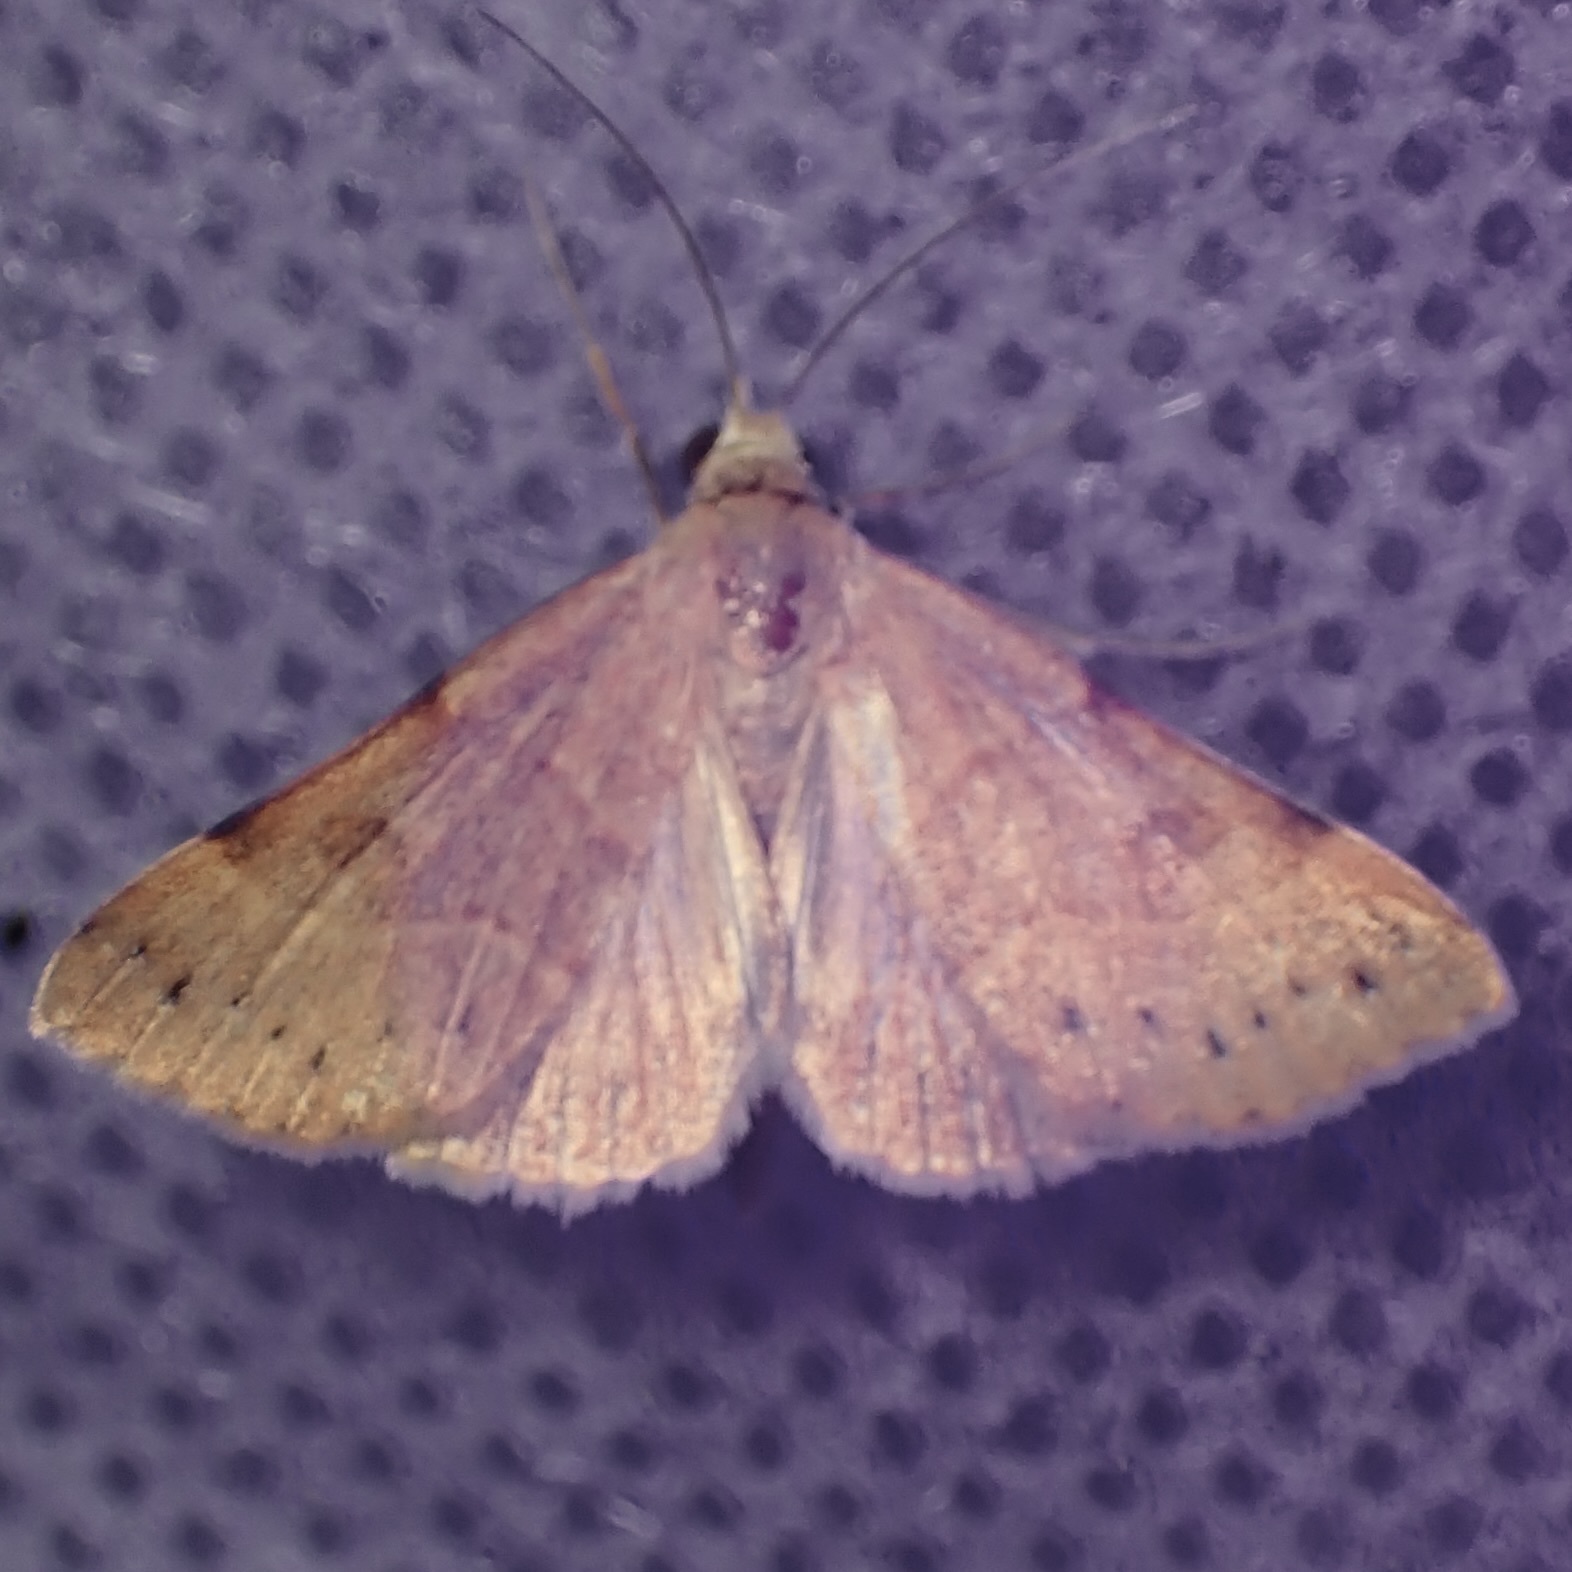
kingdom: Animalia
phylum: Arthropoda
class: Insecta
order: Lepidoptera
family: Erebidae
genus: Hemeroplanis
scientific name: Hemeroplanis incusalis
